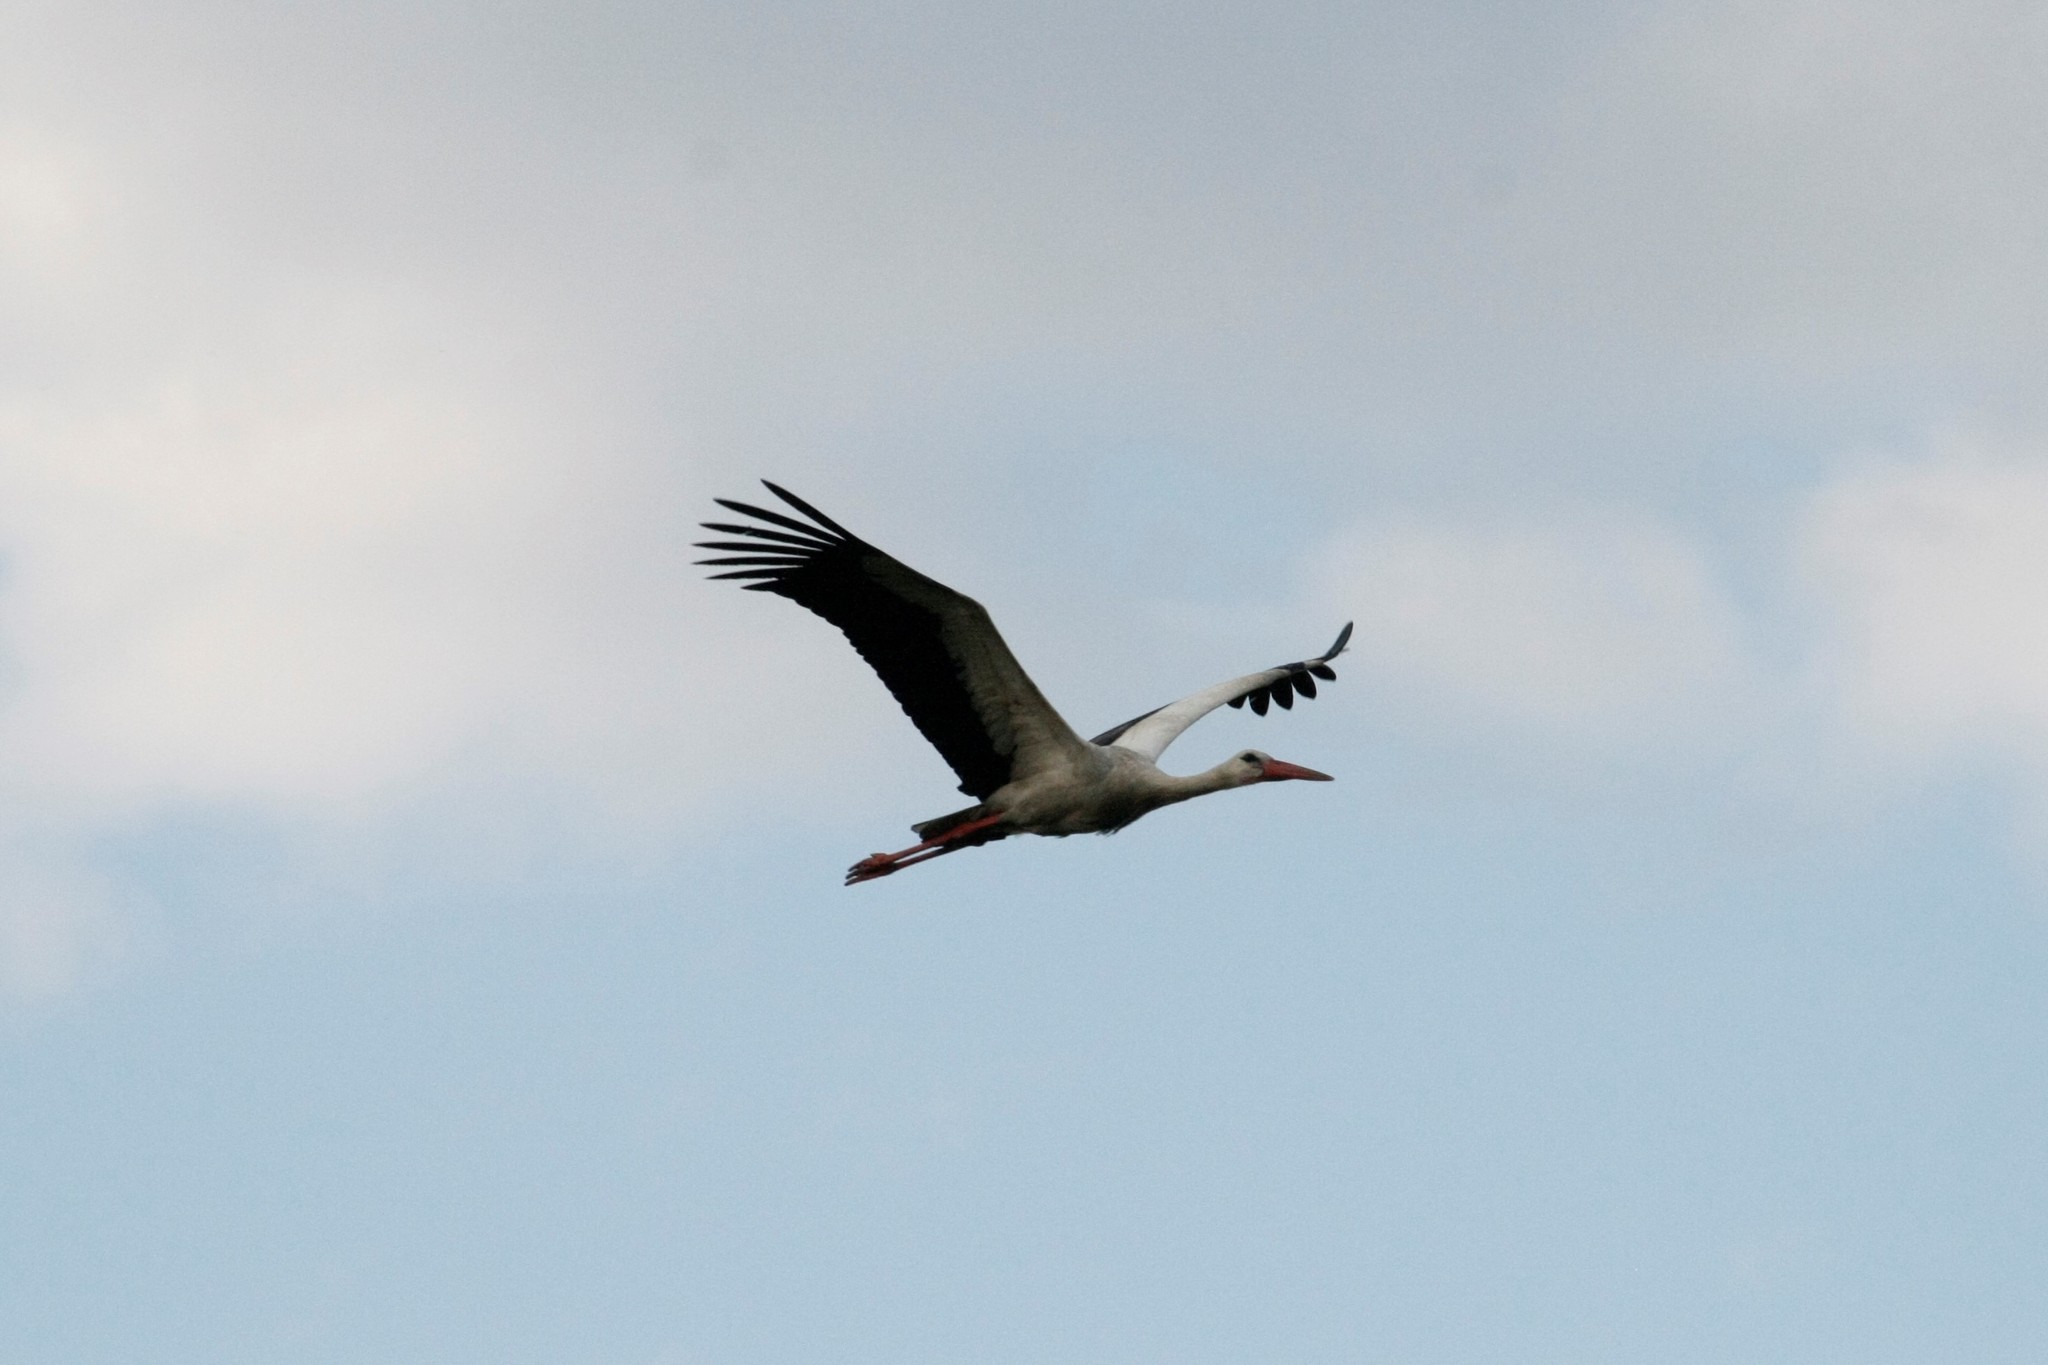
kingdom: Animalia
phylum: Chordata
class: Aves
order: Ciconiiformes
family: Ciconiidae
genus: Ciconia
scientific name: Ciconia ciconia
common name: White stork
